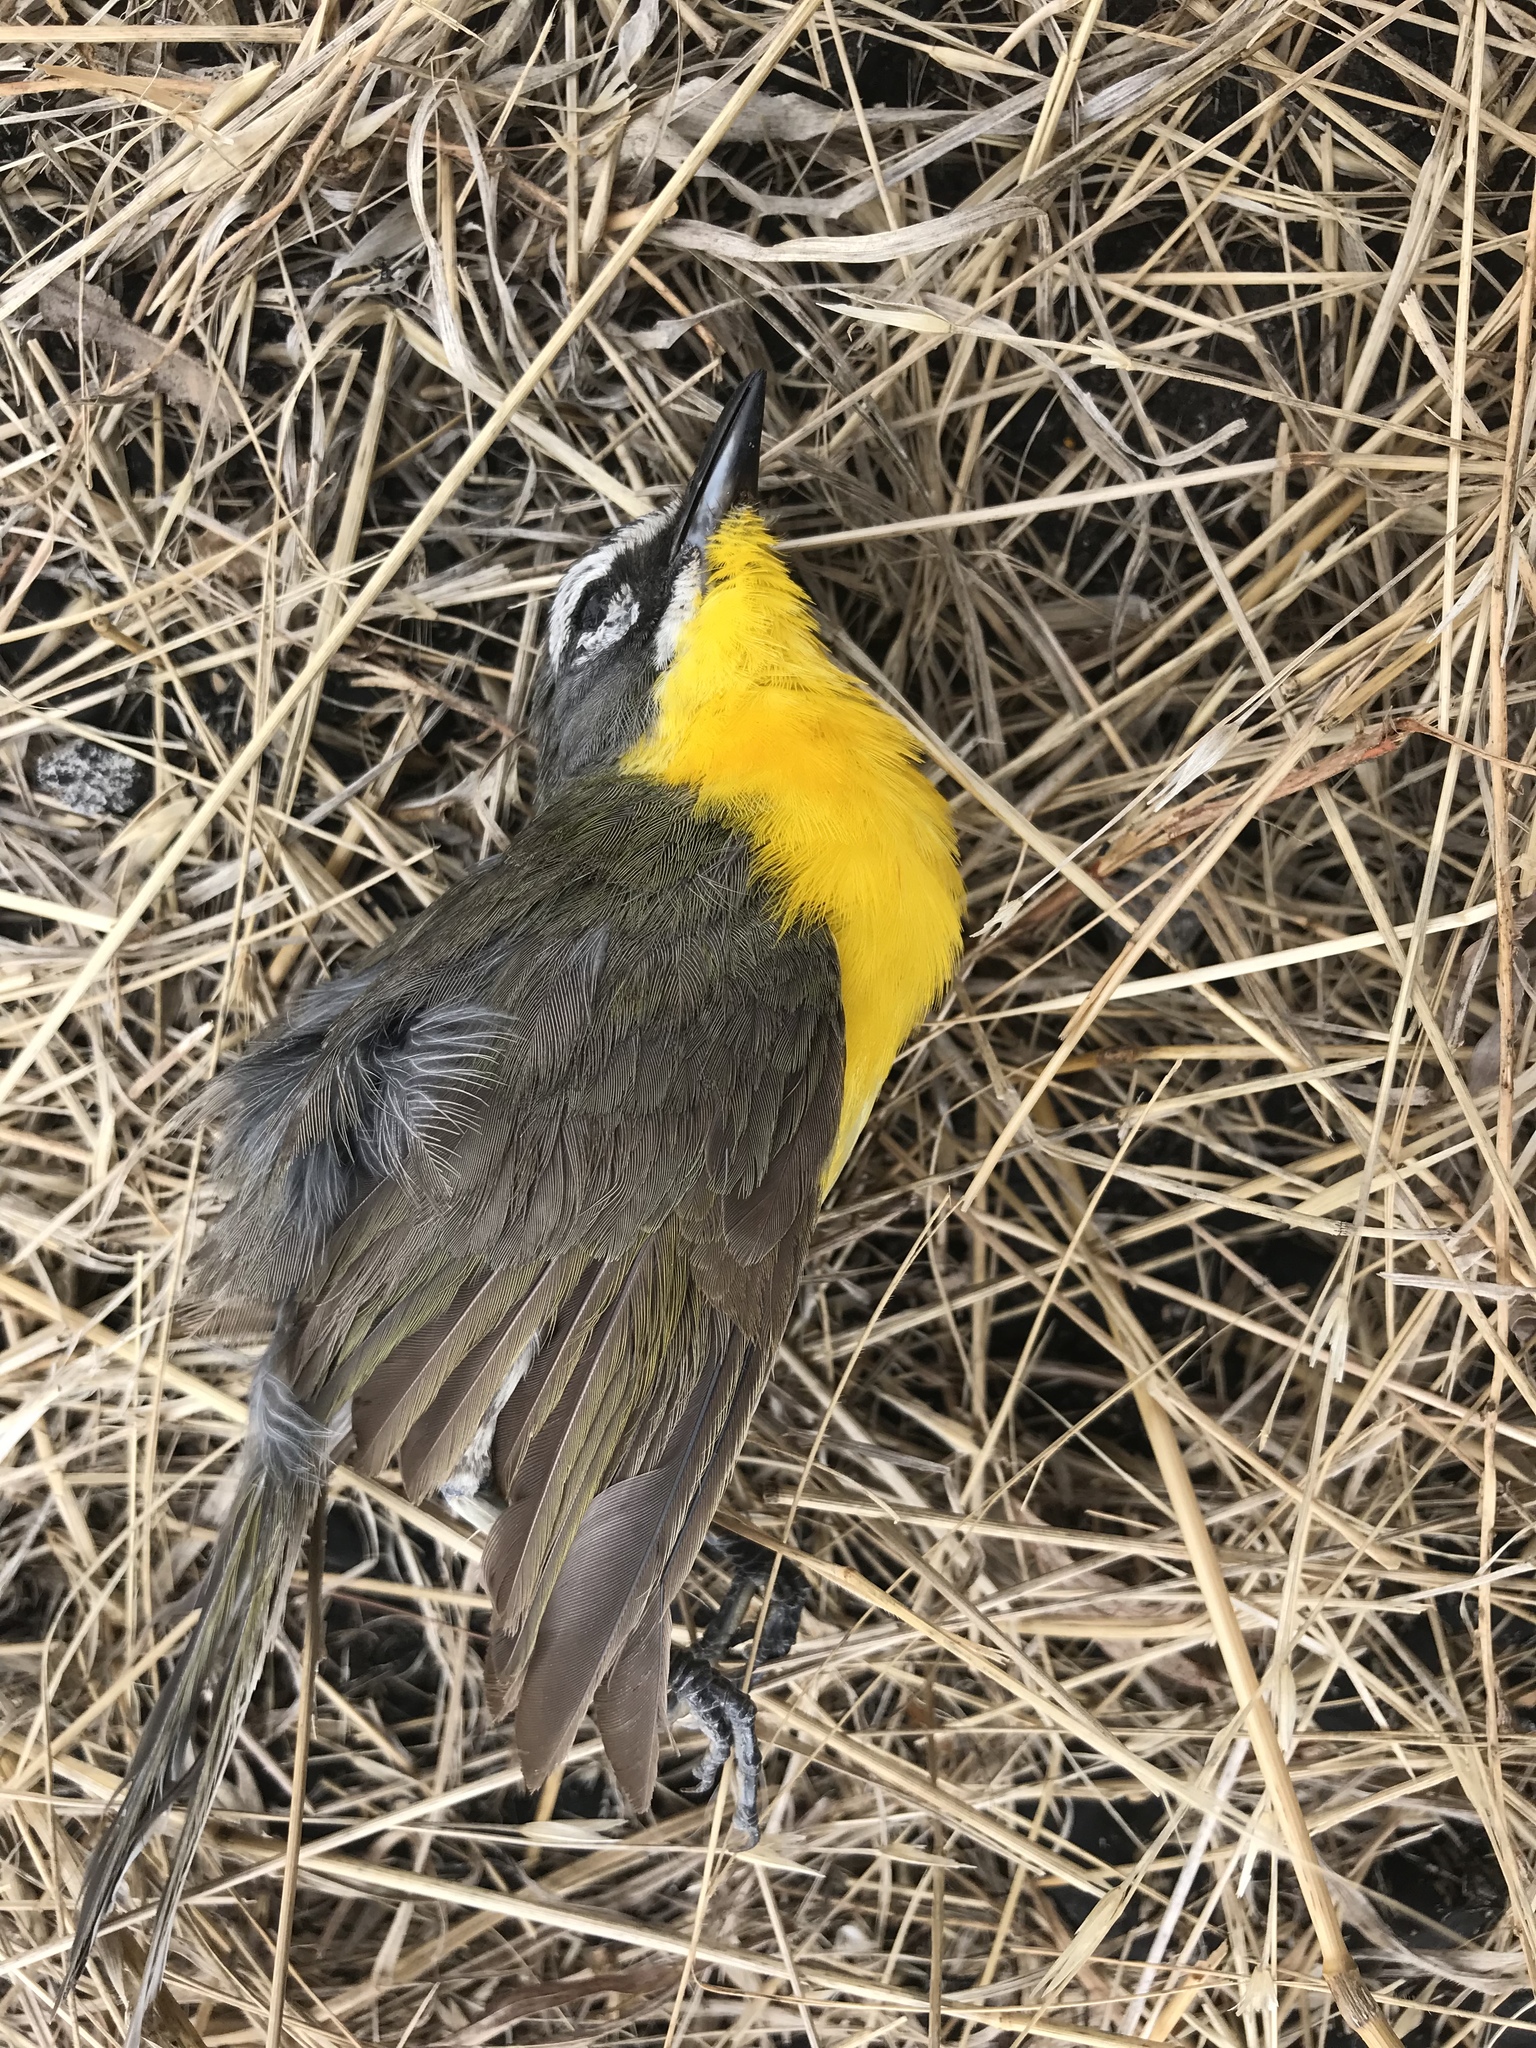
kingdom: Animalia
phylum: Chordata
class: Aves
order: Passeriformes
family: Parulidae
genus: Icteria
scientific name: Icteria virens
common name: Yellow-breasted chat
